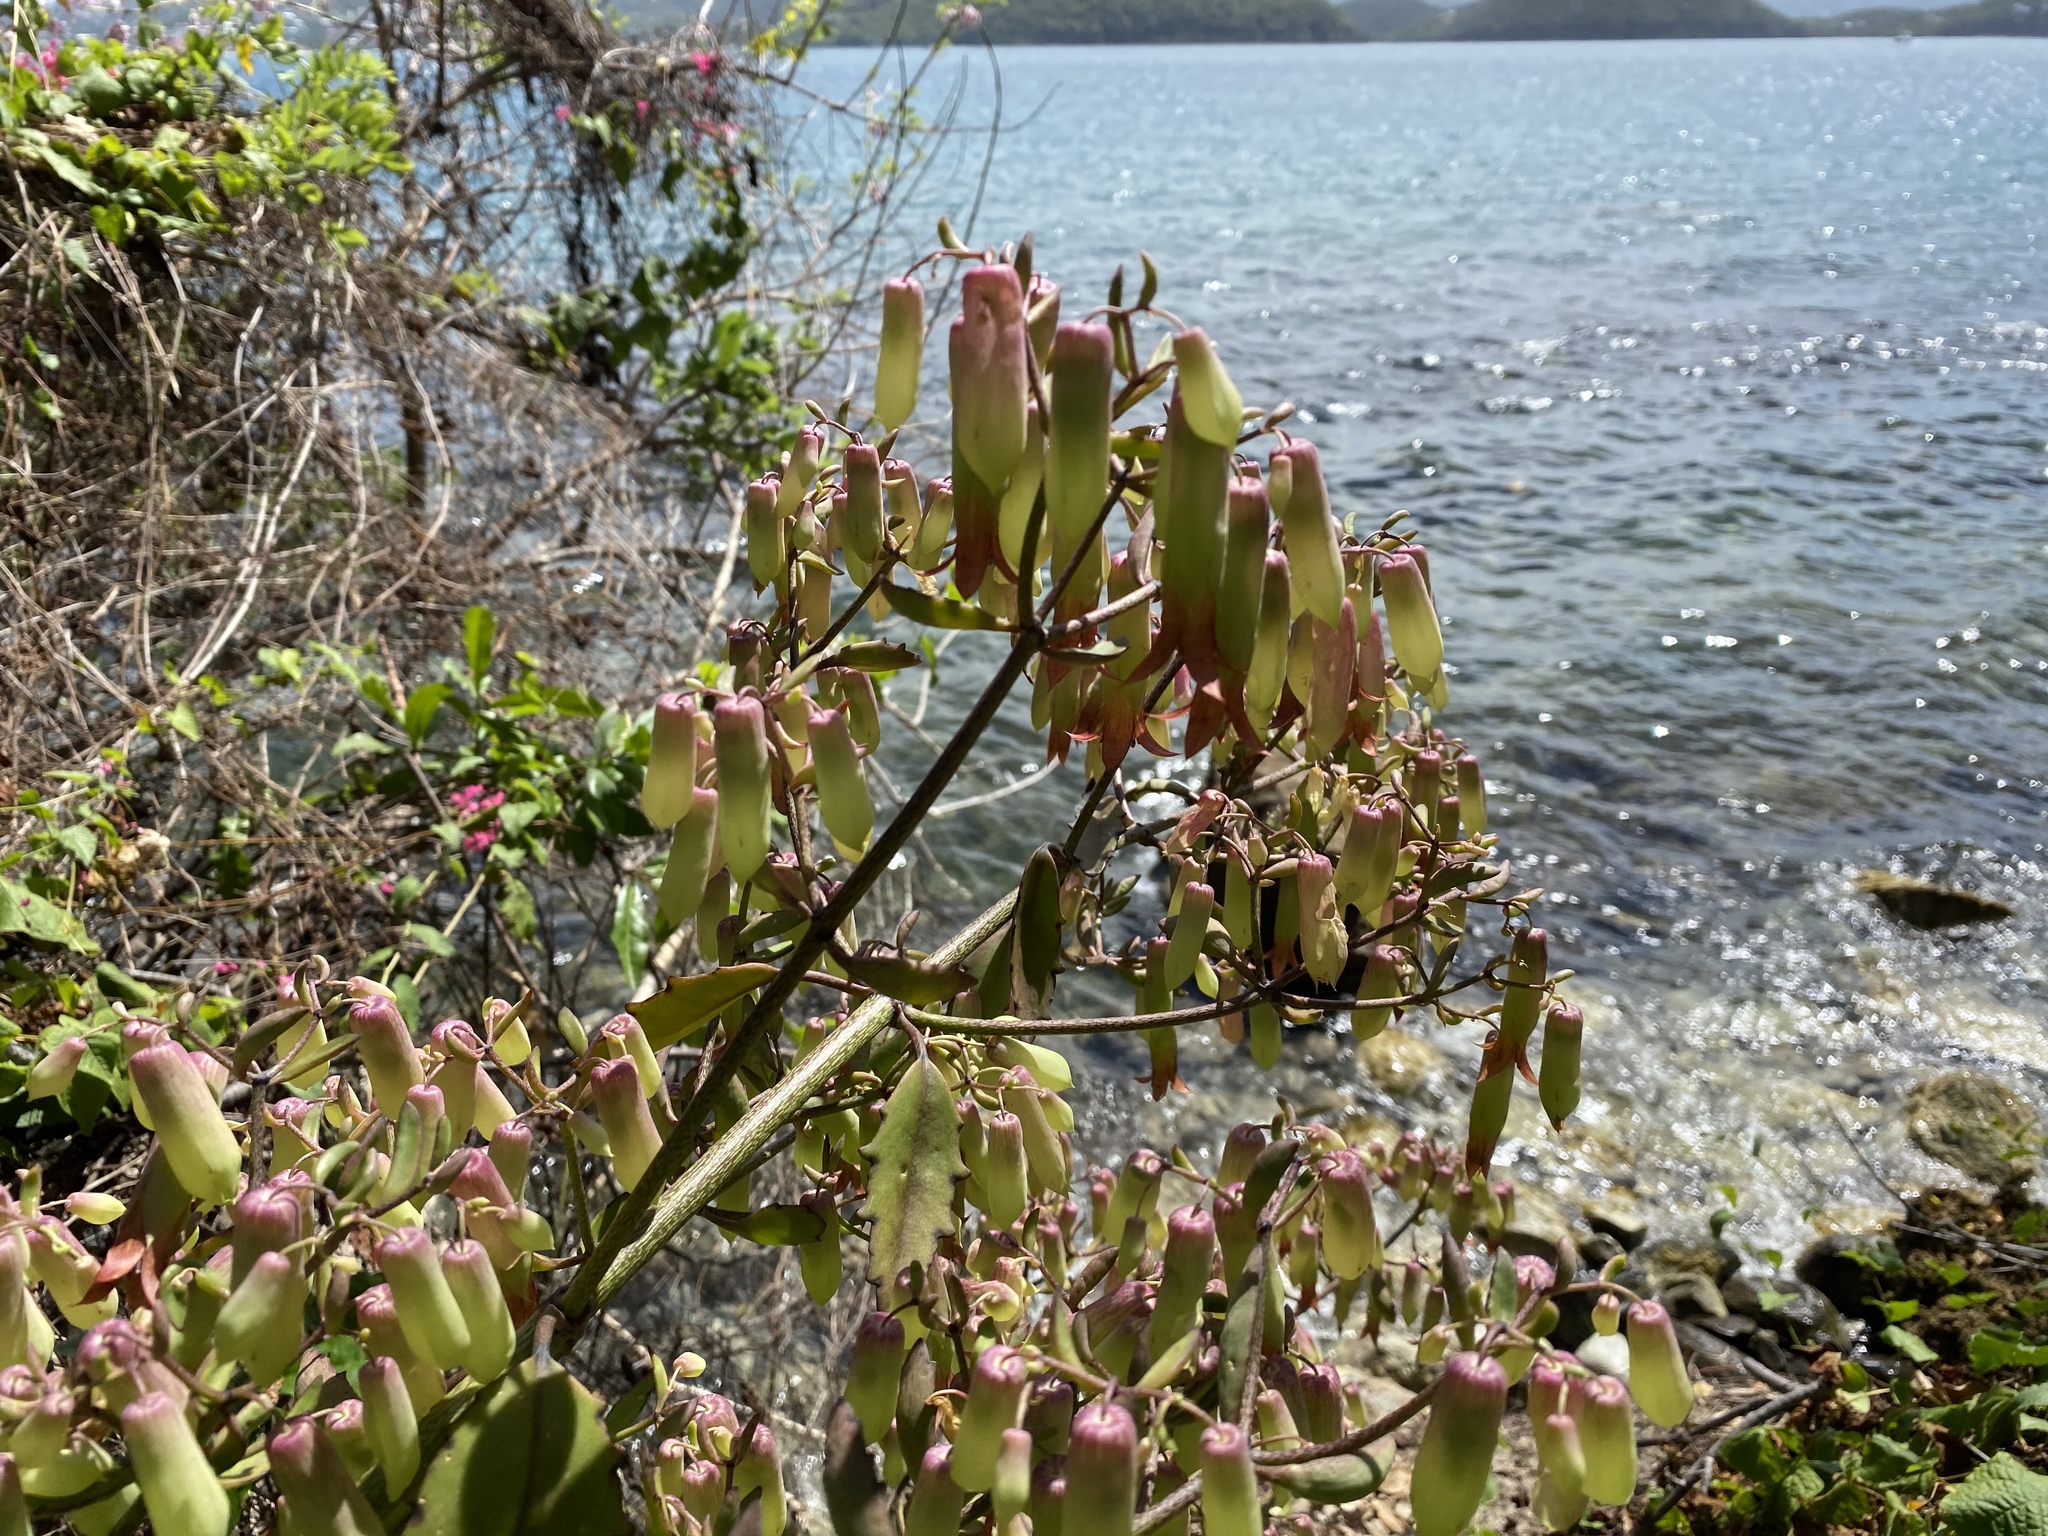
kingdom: Plantae
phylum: Tracheophyta
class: Magnoliopsida
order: Saxifragales
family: Crassulaceae
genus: Kalanchoe
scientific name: Kalanchoe pinnata
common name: Cathedral bells
